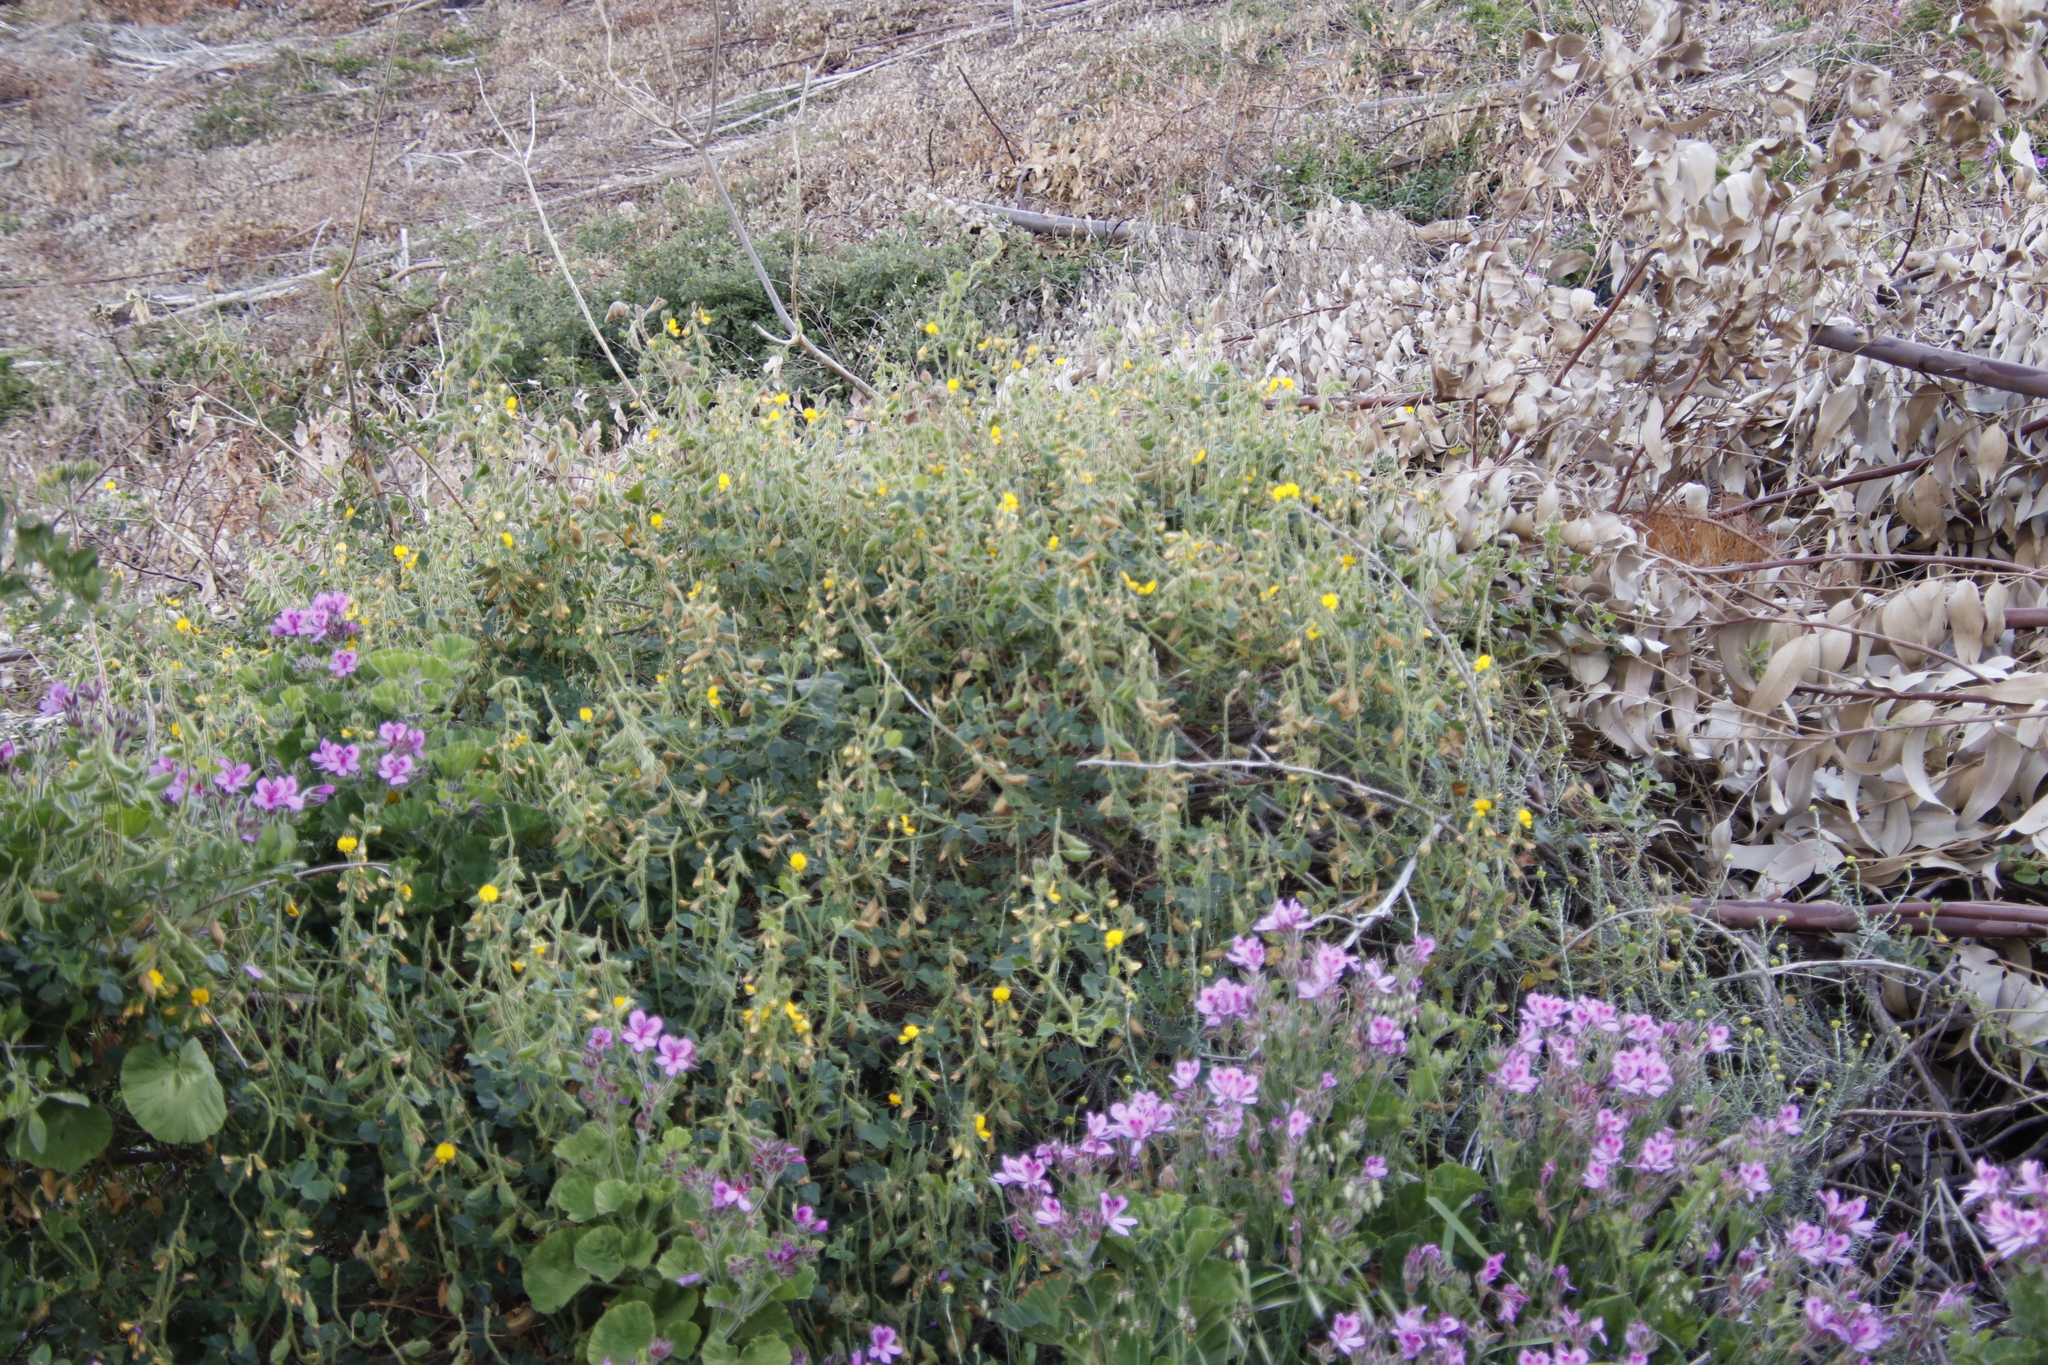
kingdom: Plantae
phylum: Tracheophyta
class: Magnoliopsida
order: Fabales
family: Fabaceae
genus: Bolusafra
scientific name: Bolusafra bituminosa
